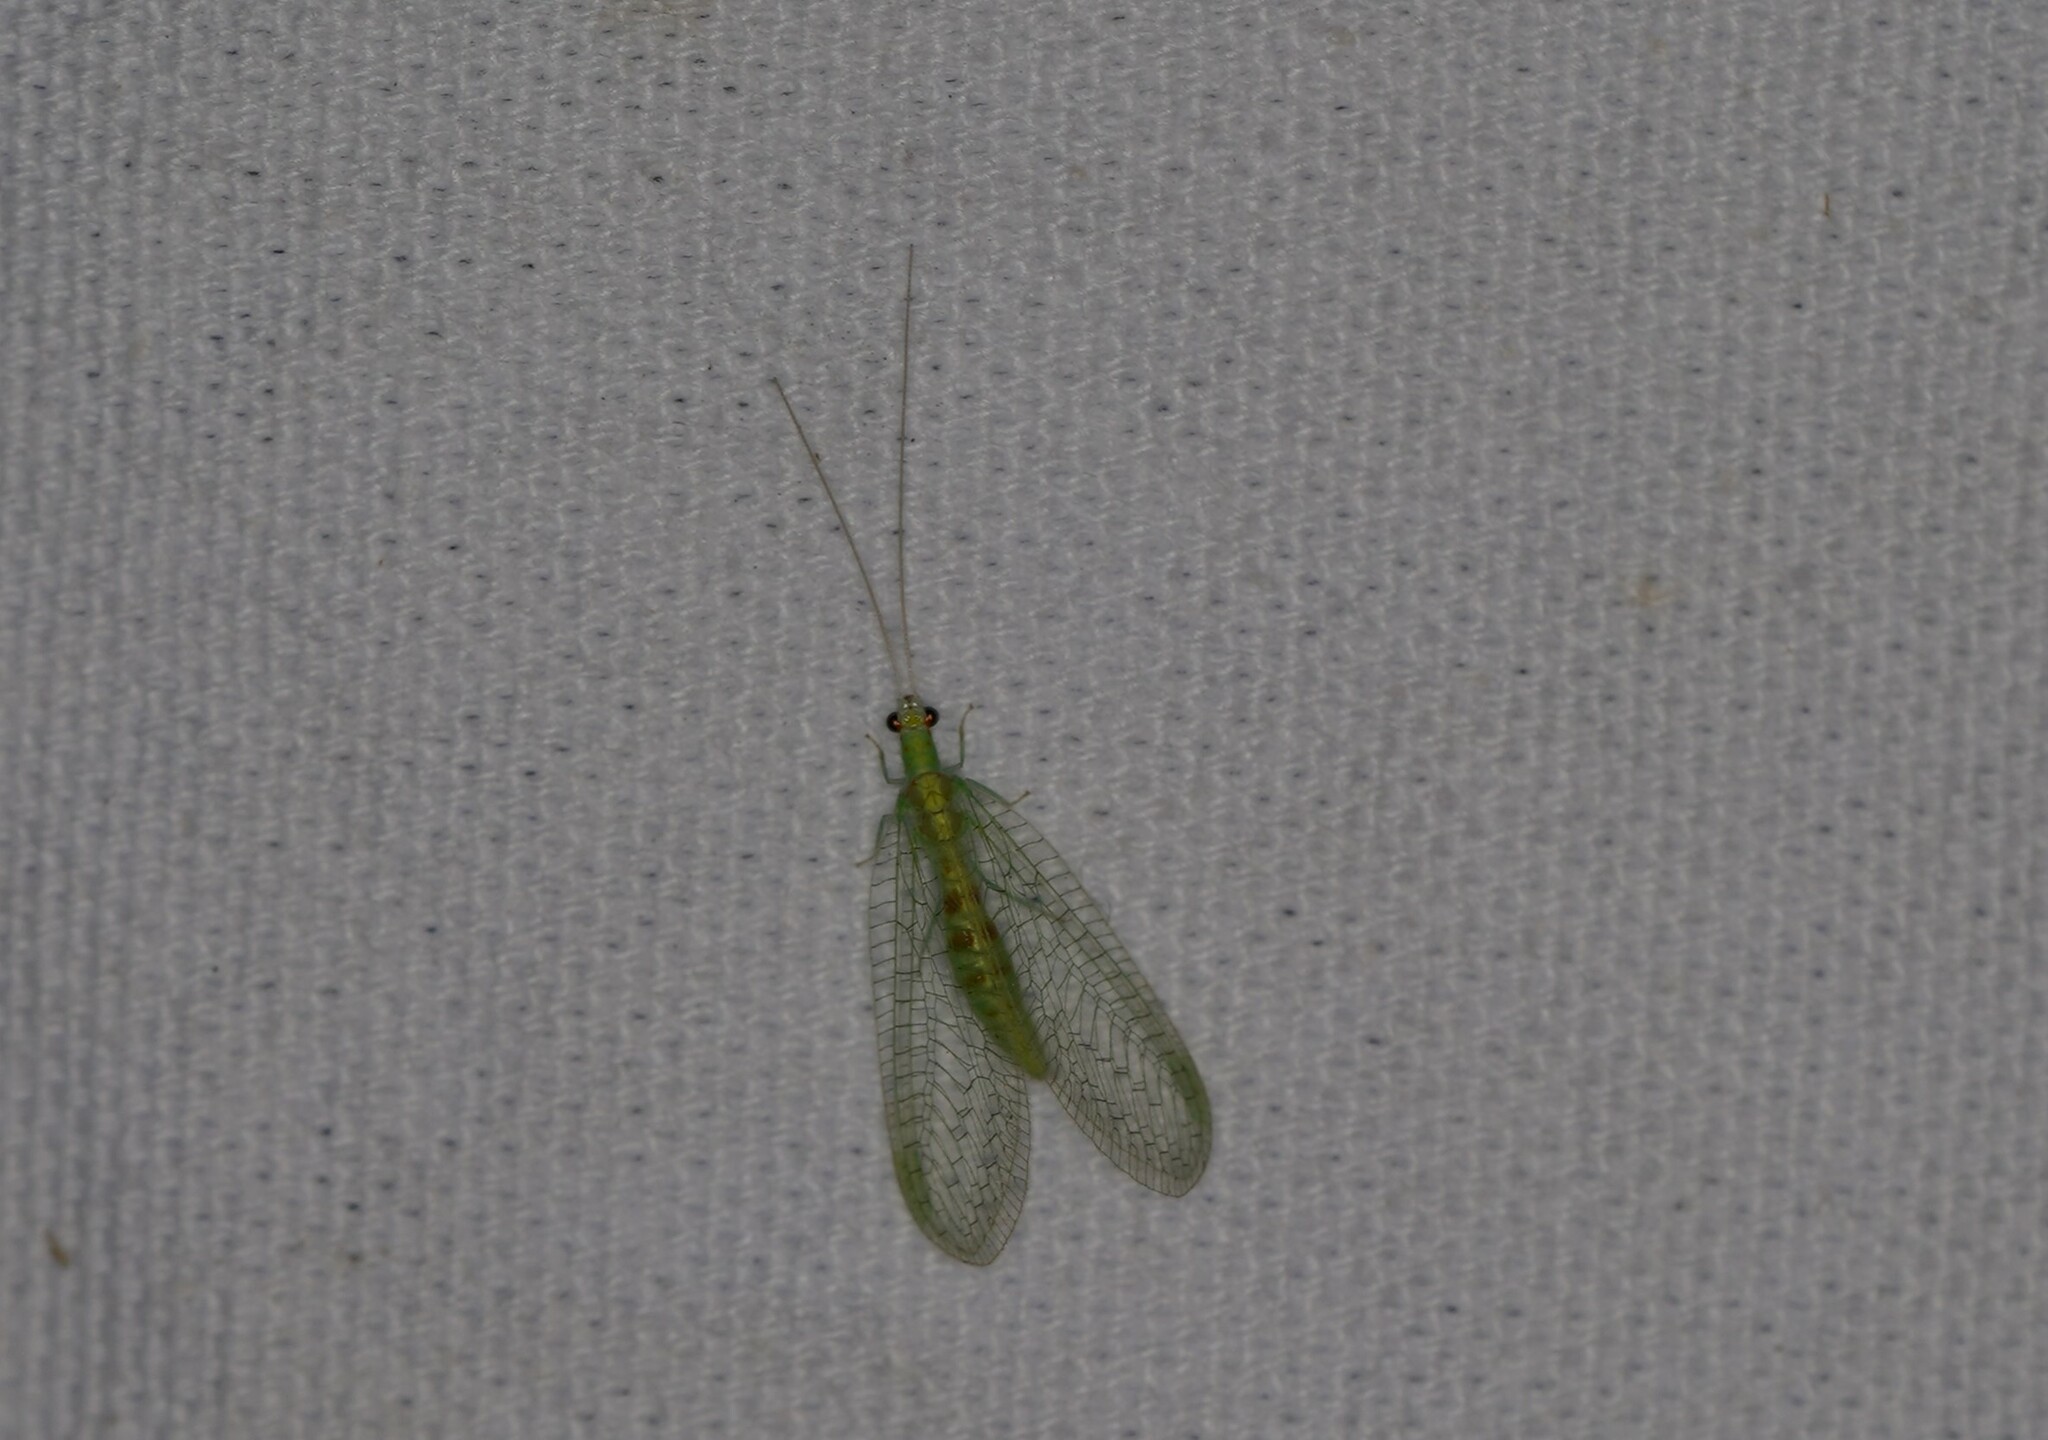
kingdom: Animalia
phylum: Arthropoda
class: Insecta
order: Neuroptera
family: Chrysopidae
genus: Chrysopa
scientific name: Chrysopa quadripunctata
